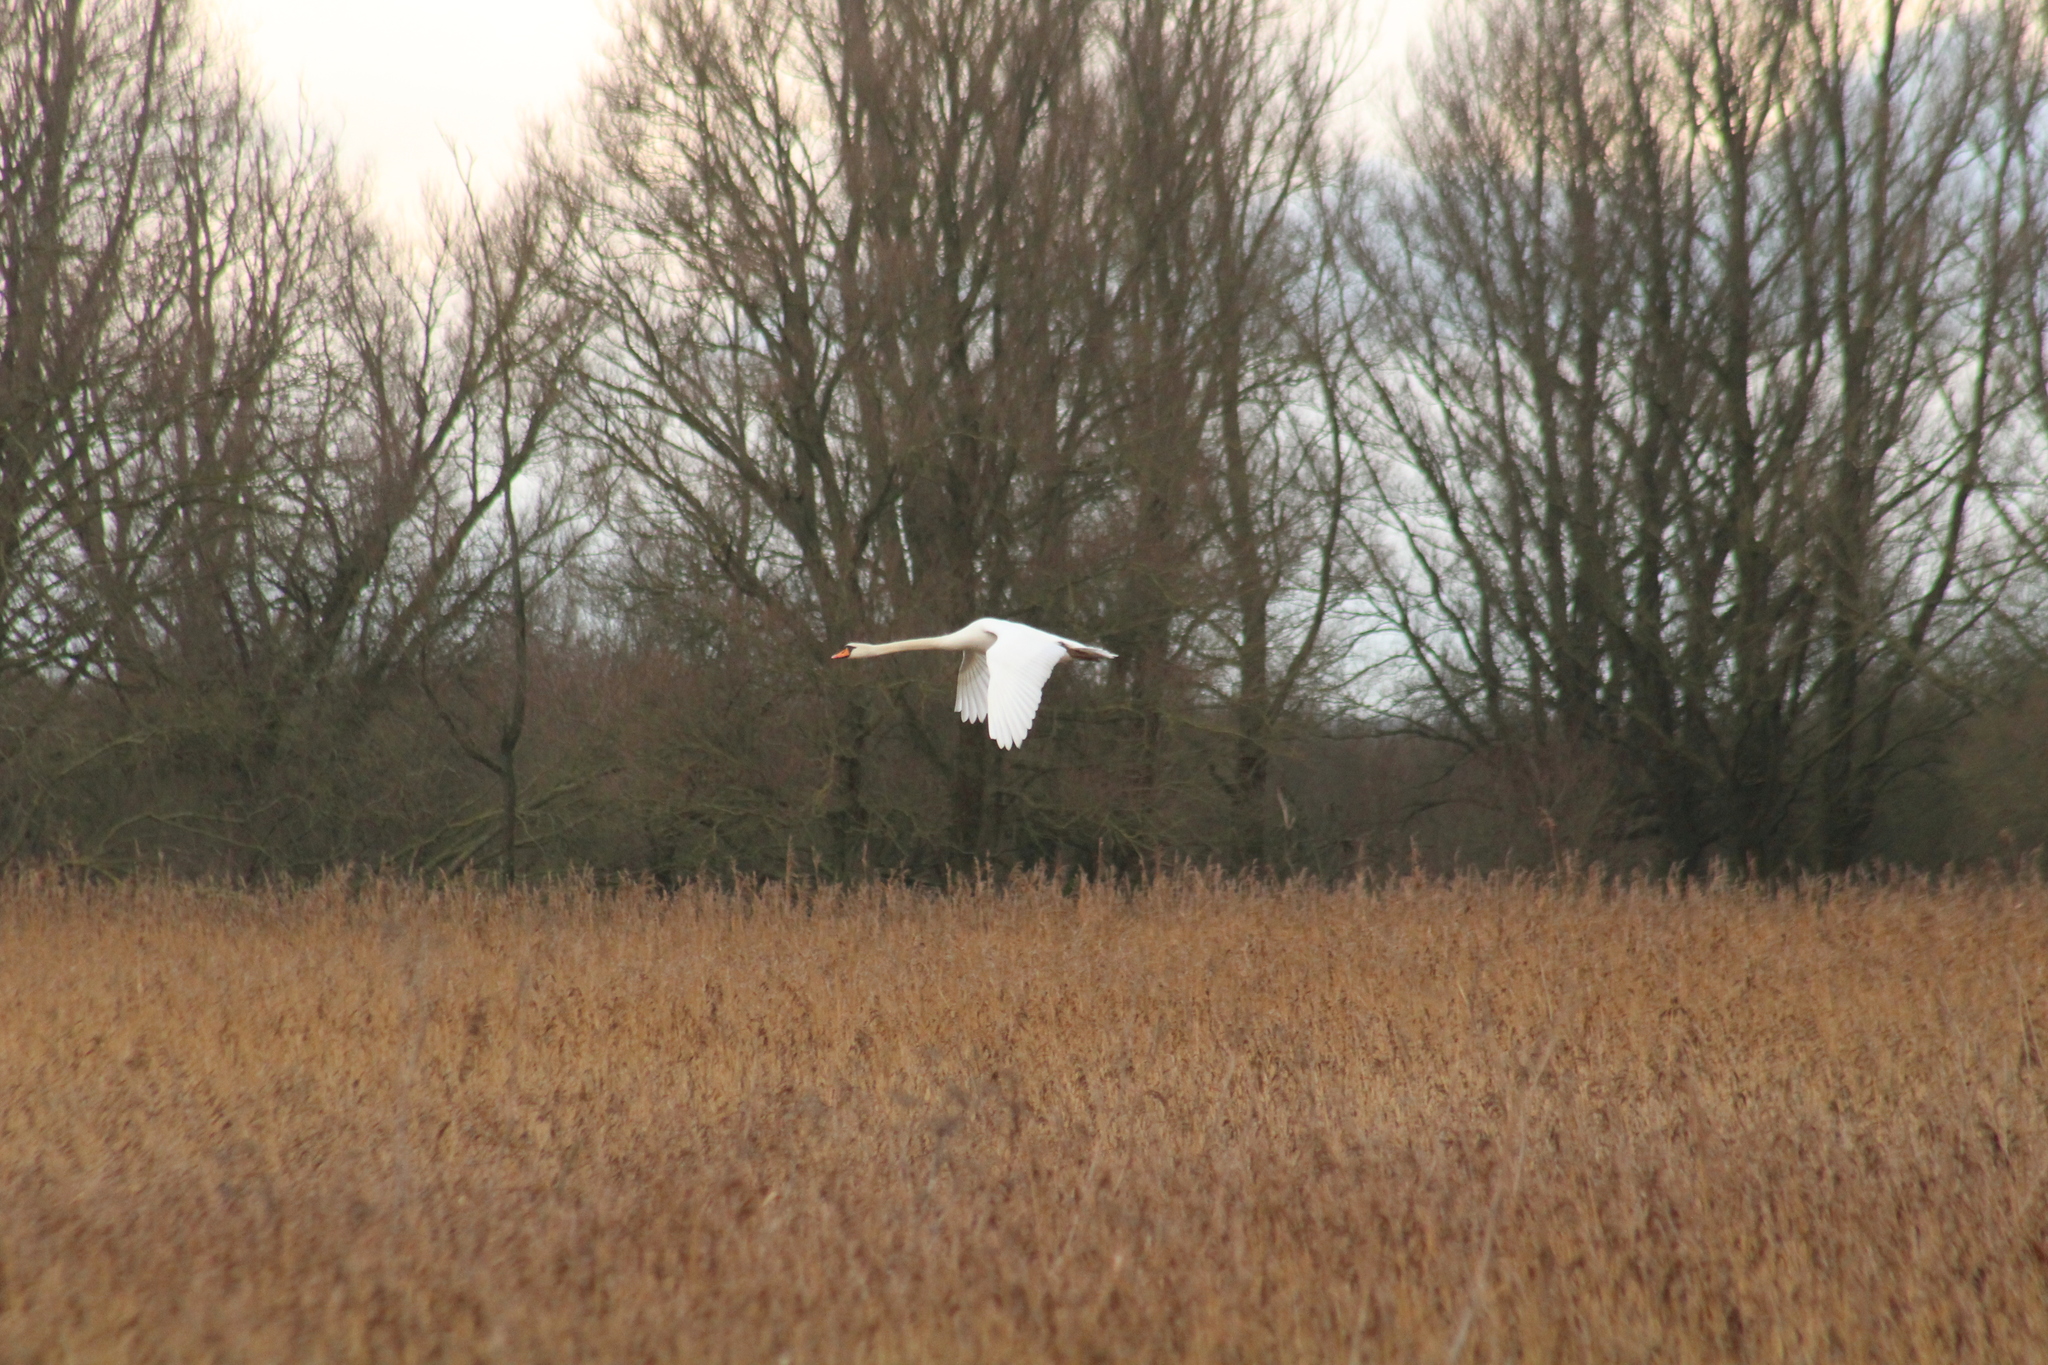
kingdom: Animalia
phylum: Chordata
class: Aves
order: Anseriformes
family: Anatidae
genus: Cygnus
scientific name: Cygnus olor
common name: Mute swan
